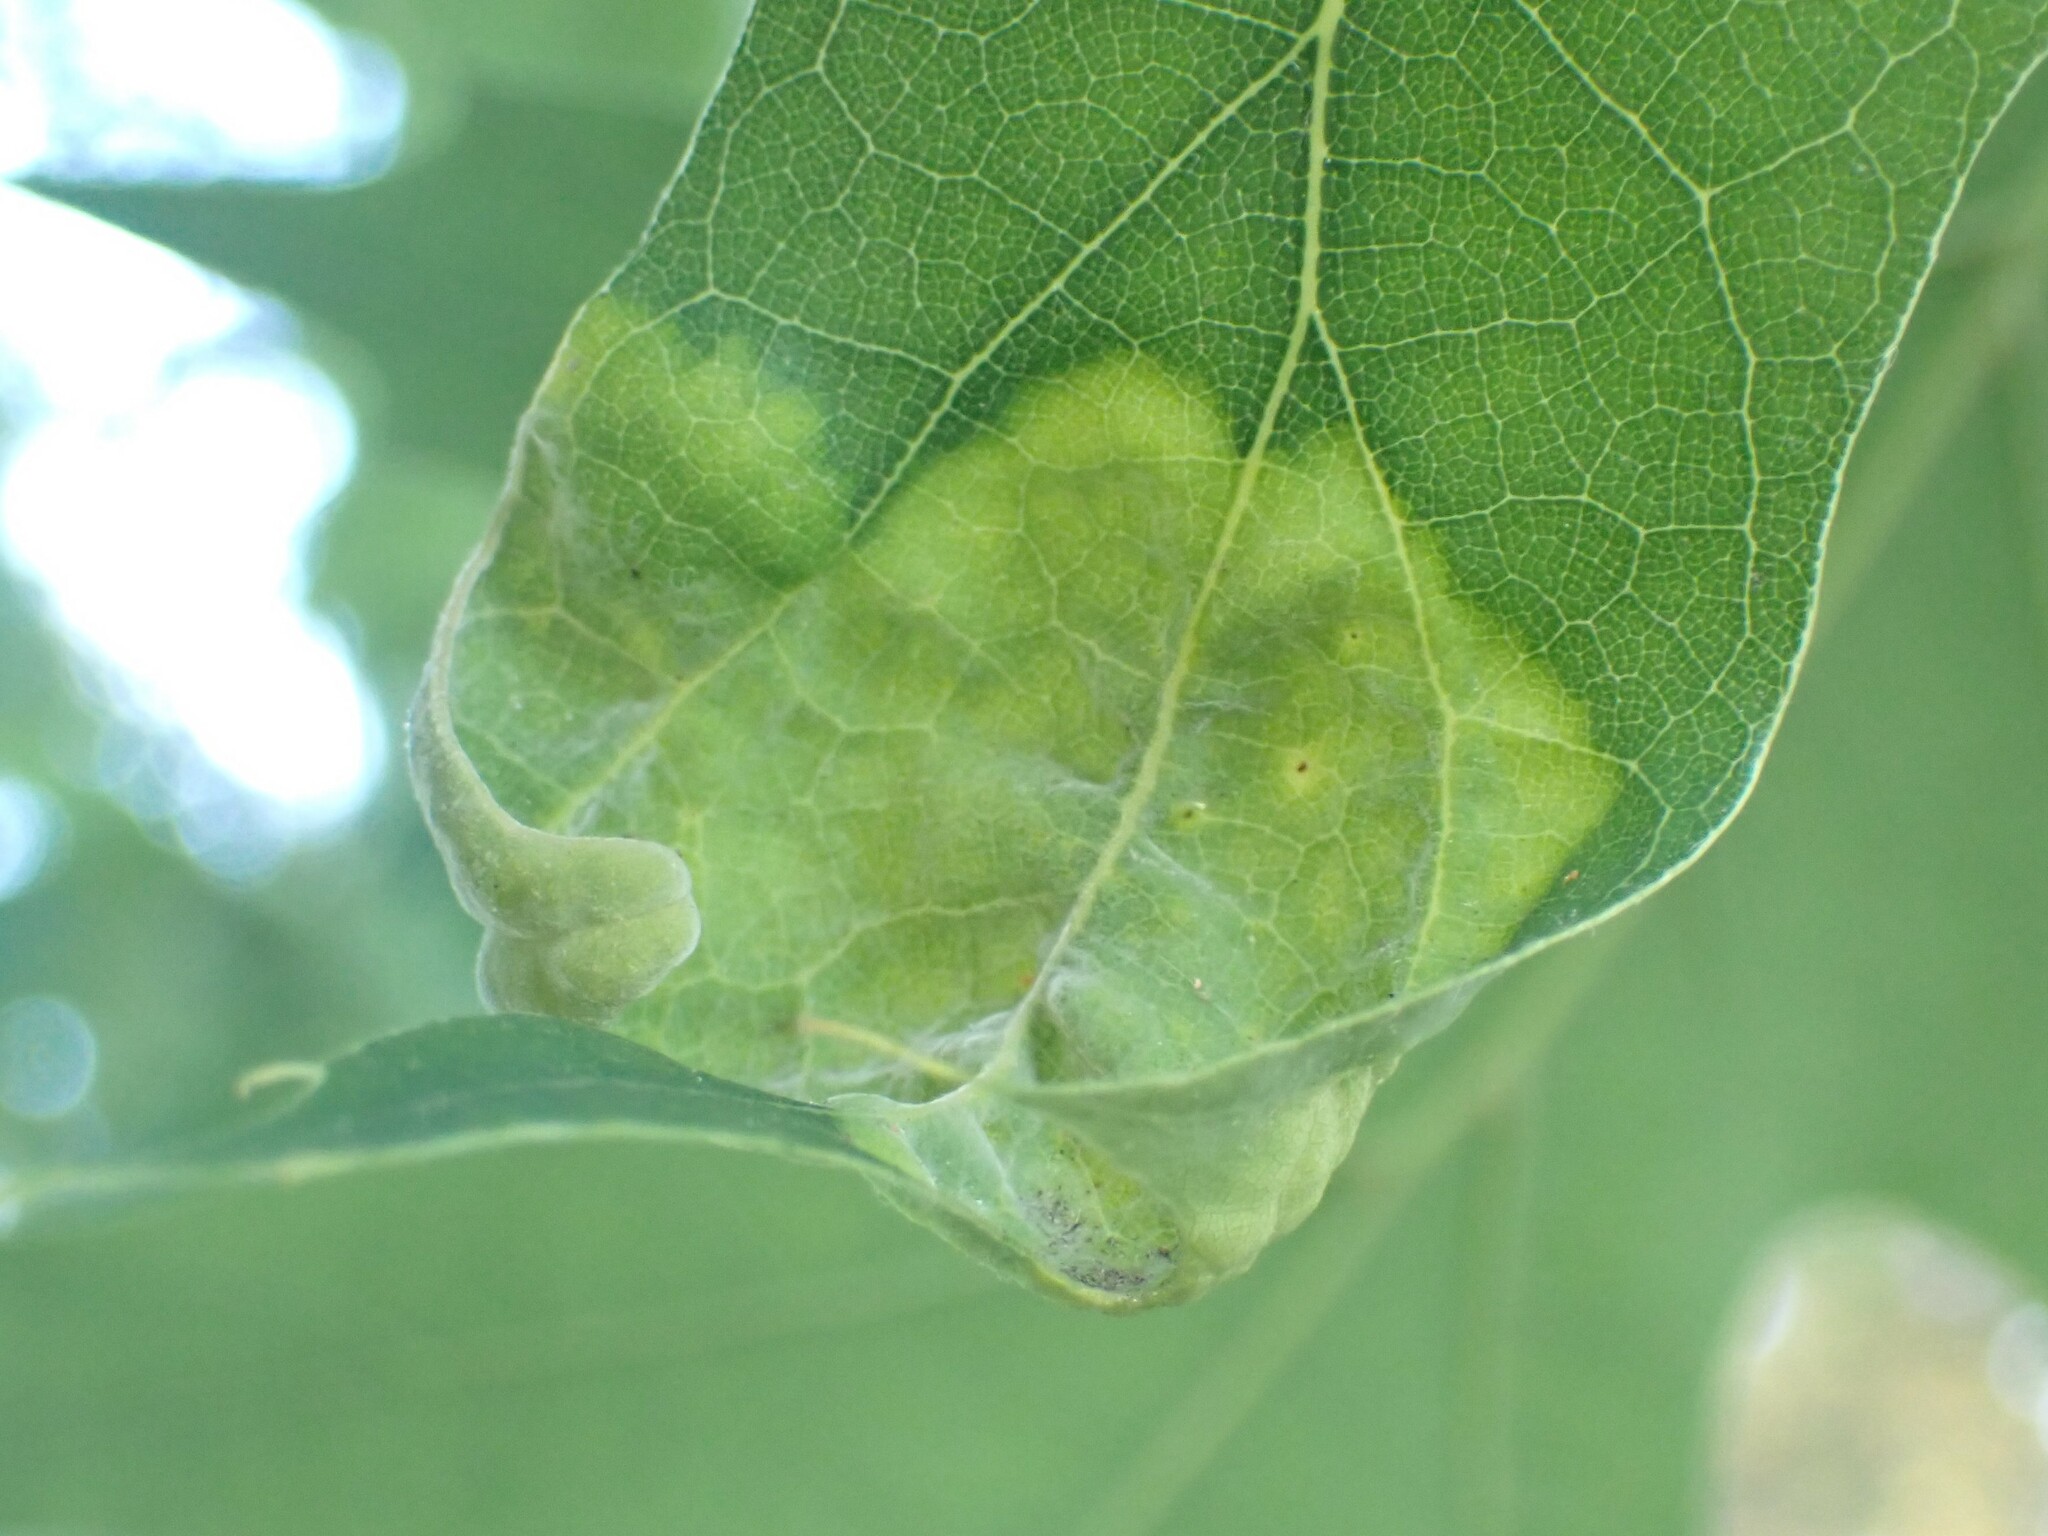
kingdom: Fungi
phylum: Ascomycota
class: Taphrinomycetes
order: Taphrinales
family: Taphrinaceae
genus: Taphrina
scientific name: Taphrina caerulescens
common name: Oak leaf blister
